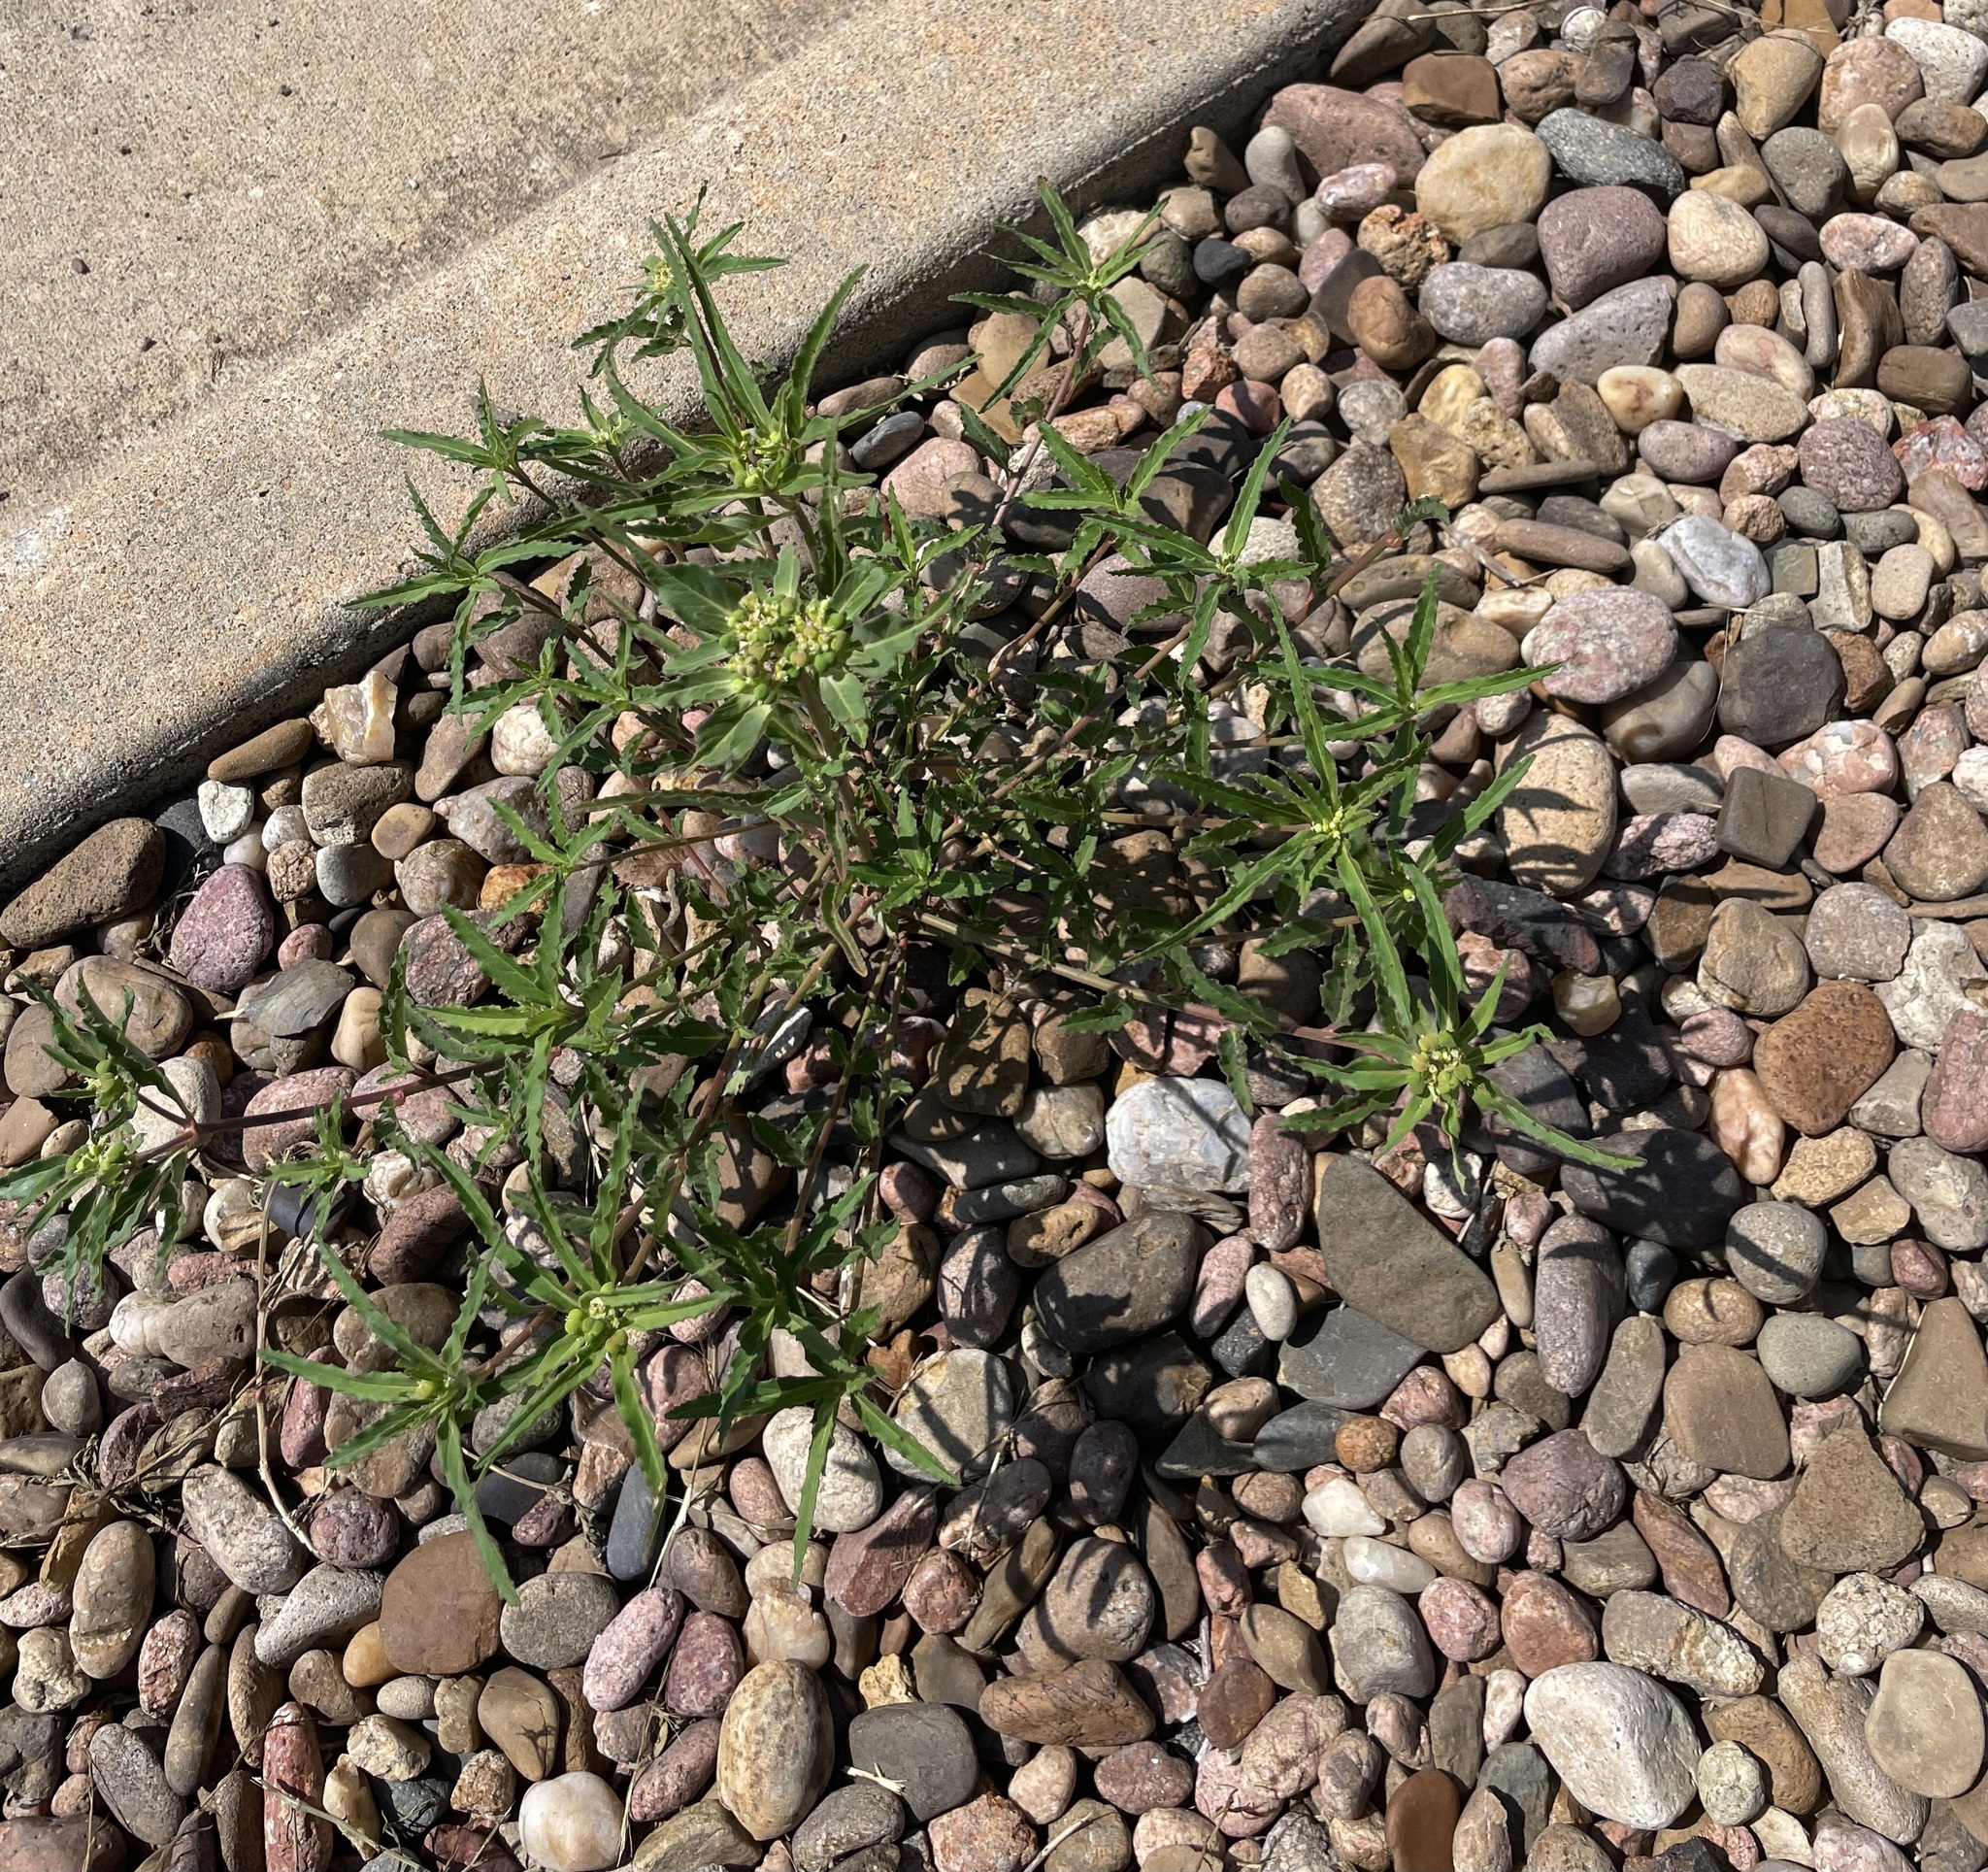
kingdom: Plantae
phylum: Tracheophyta
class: Magnoliopsida
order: Malpighiales
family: Euphorbiaceae
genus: Euphorbia
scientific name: Euphorbia davidii
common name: David's spurge
